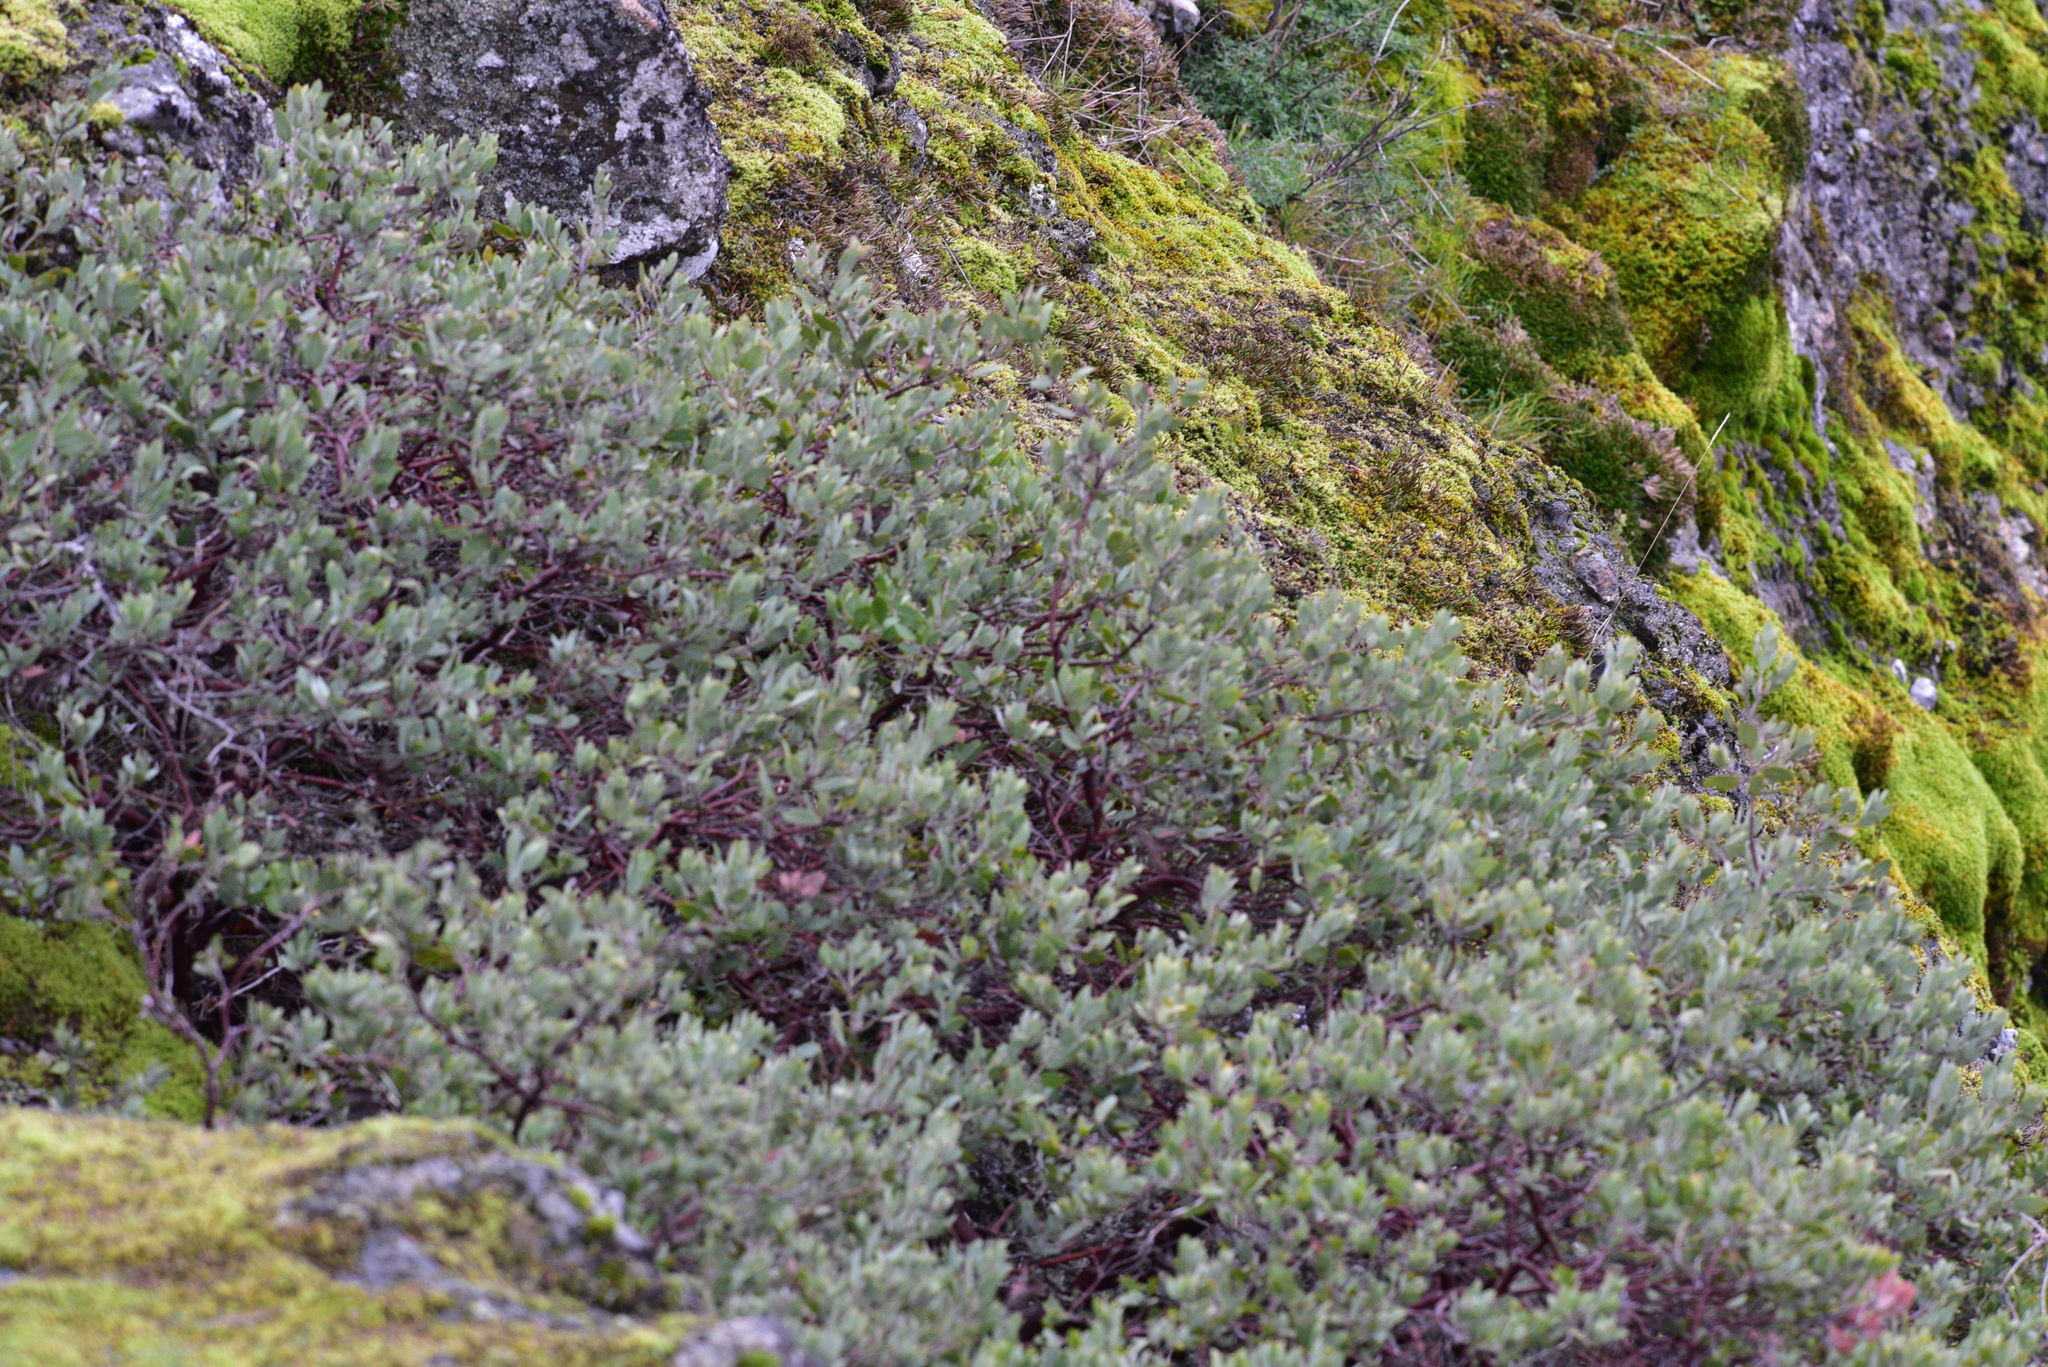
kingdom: Plantae
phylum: Tracheophyta
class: Magnoliopsida
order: Ericales
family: Ericaceae
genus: Arctostaphylos
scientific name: Arctostaphylos columbiana
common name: Bristly bearberry
